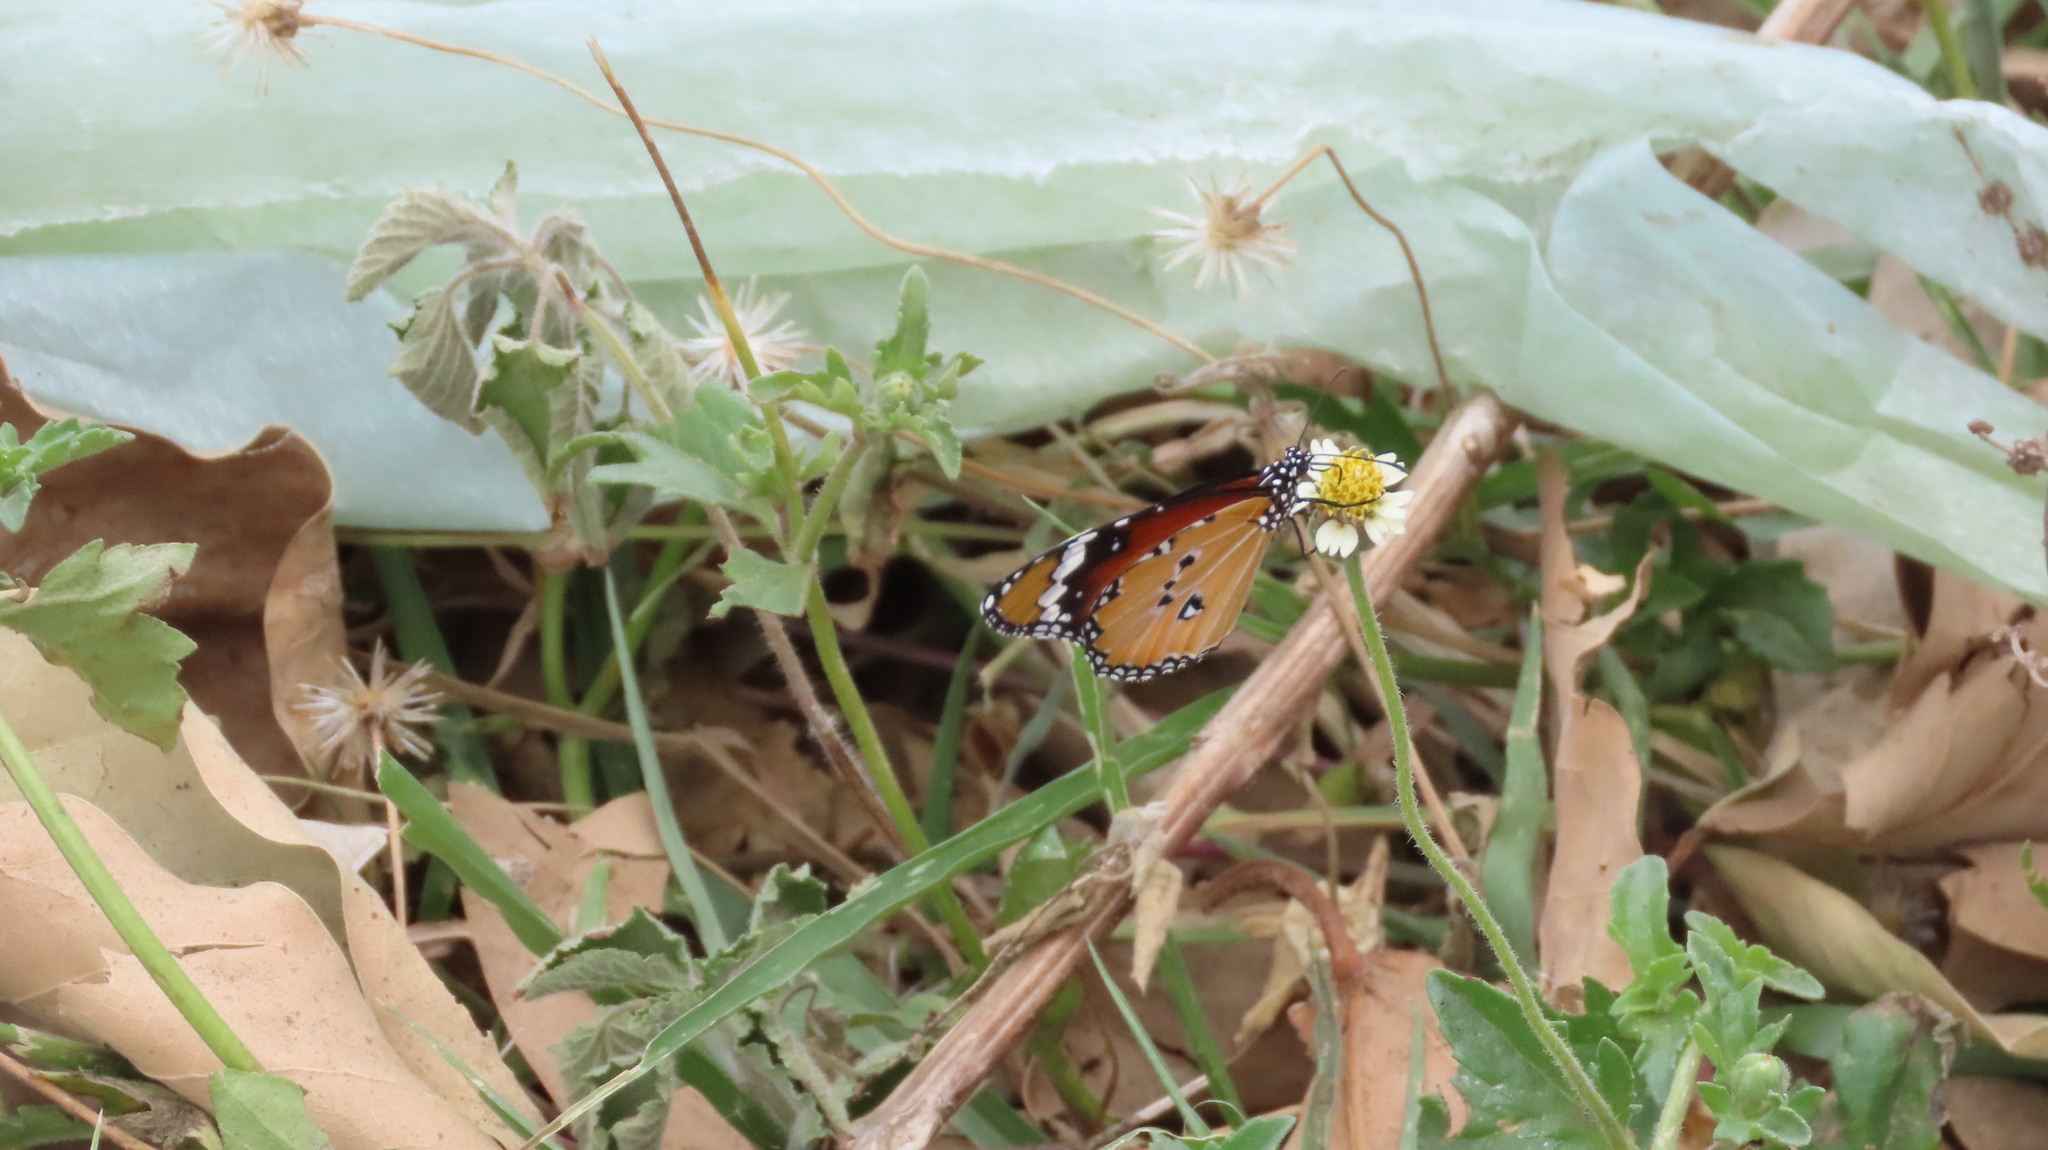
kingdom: Animalia
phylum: Arthropoda
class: Insecta
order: Lepidoptera
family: Nymphalidae
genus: Danaus
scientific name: Danaus chrysippus
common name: Plain tiger
